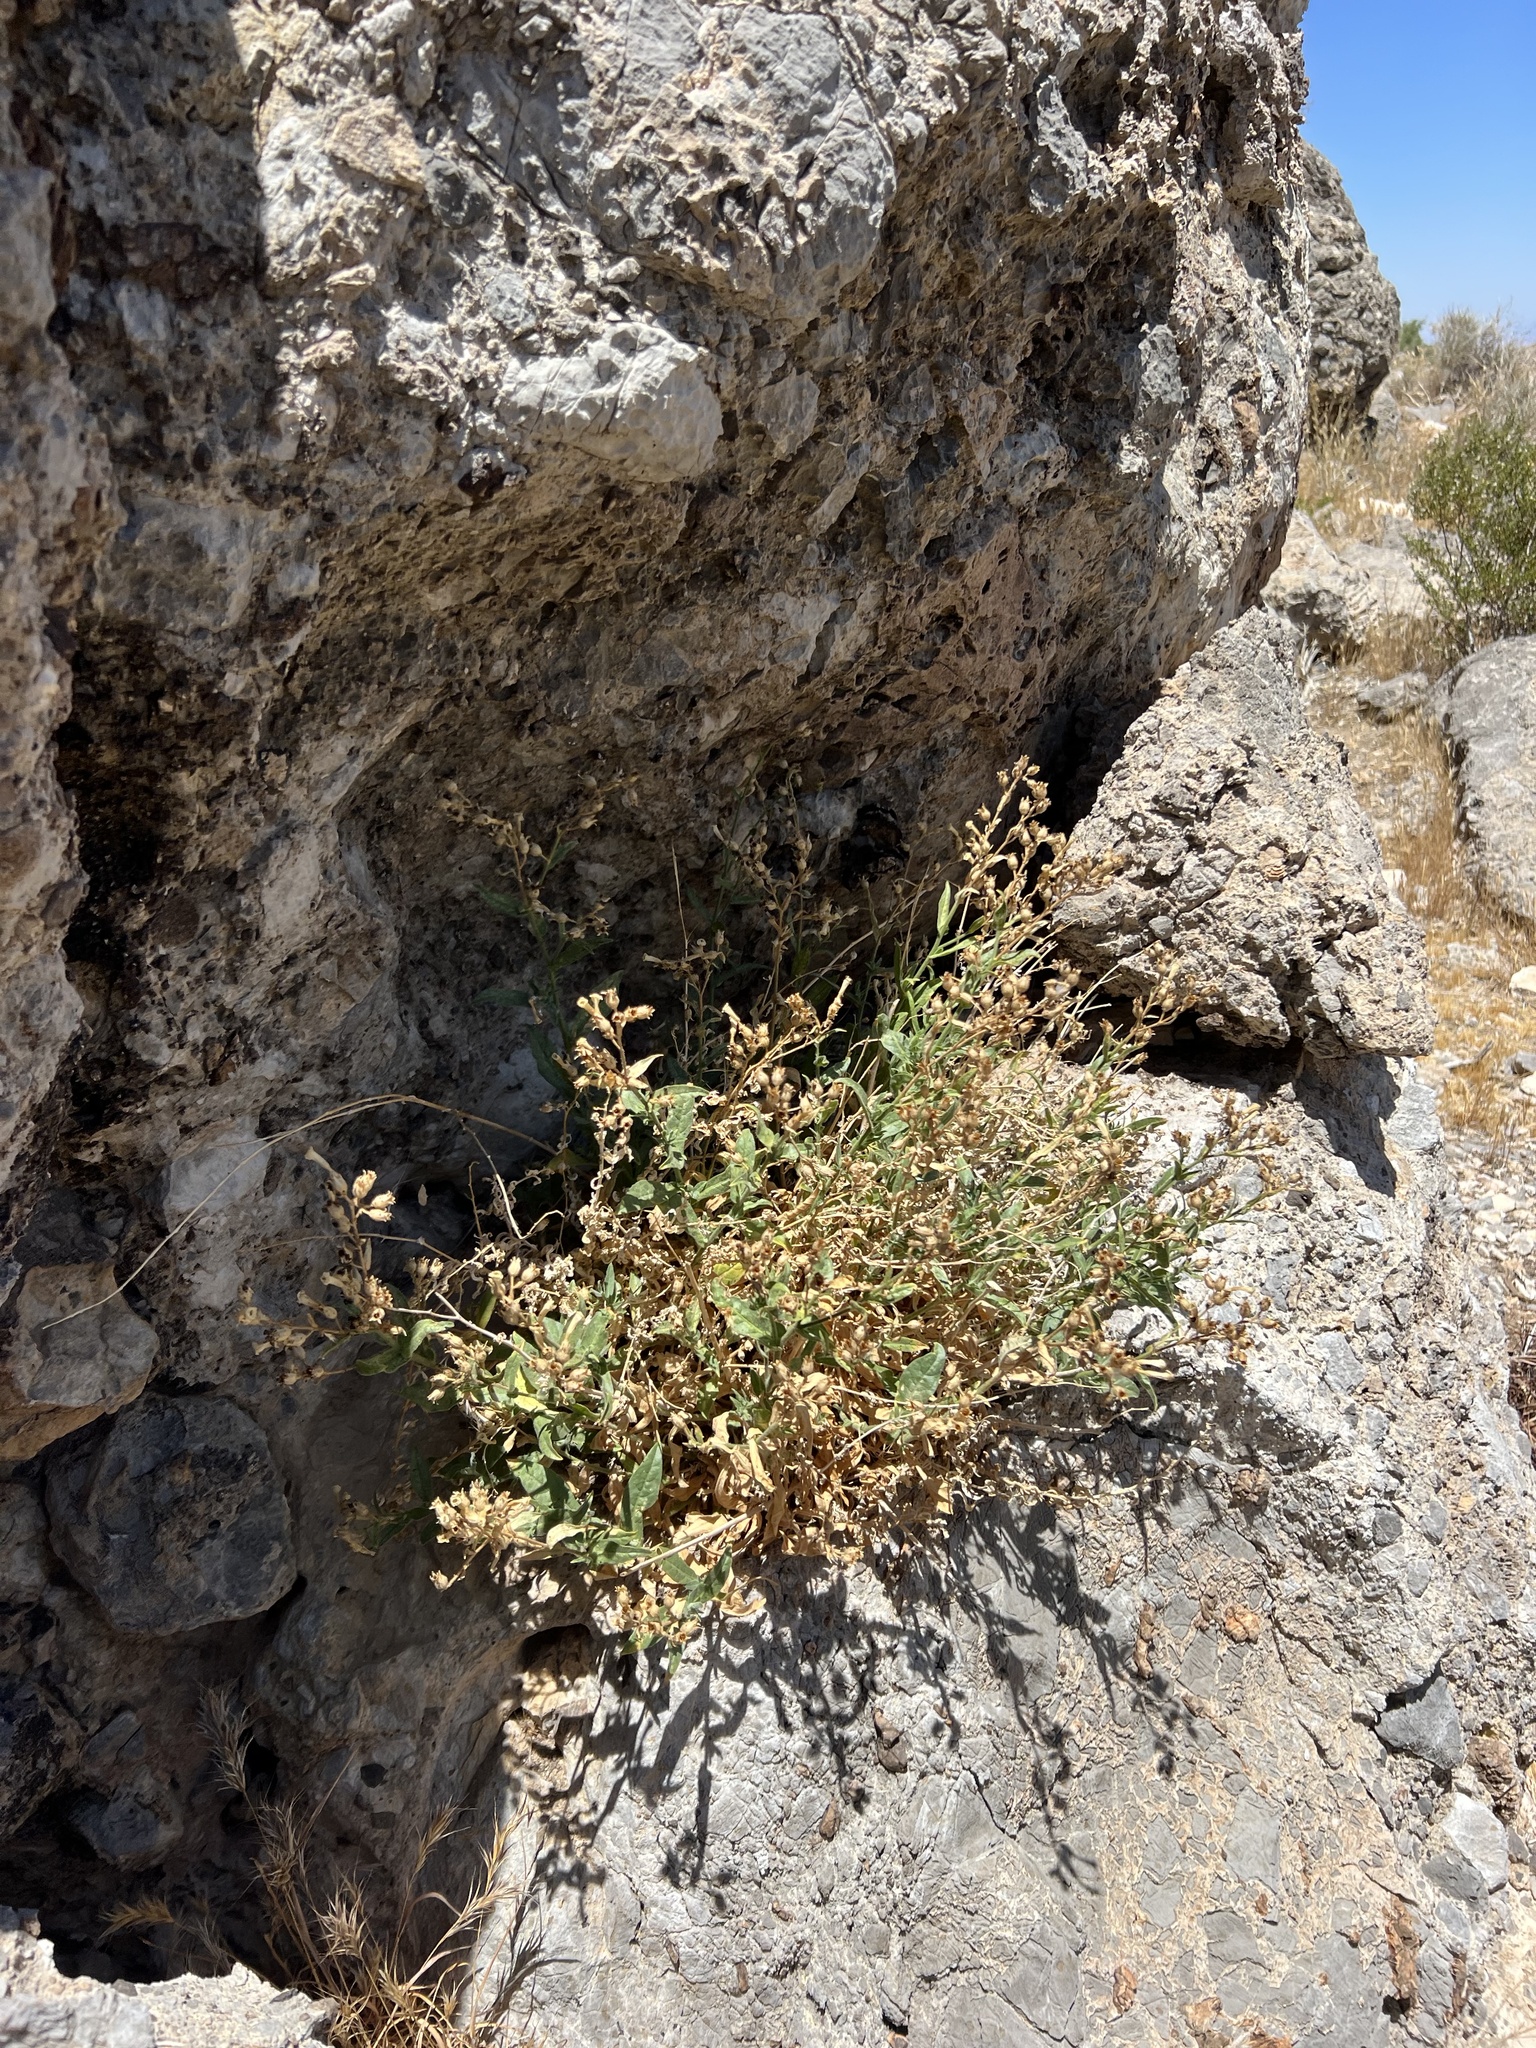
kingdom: Plantae
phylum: Tracheophyta
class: Magnoliopsida
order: Solanales
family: Solanaceae
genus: Nicotiana
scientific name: Nicotiana obtusifolia
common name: Desert tobacco
